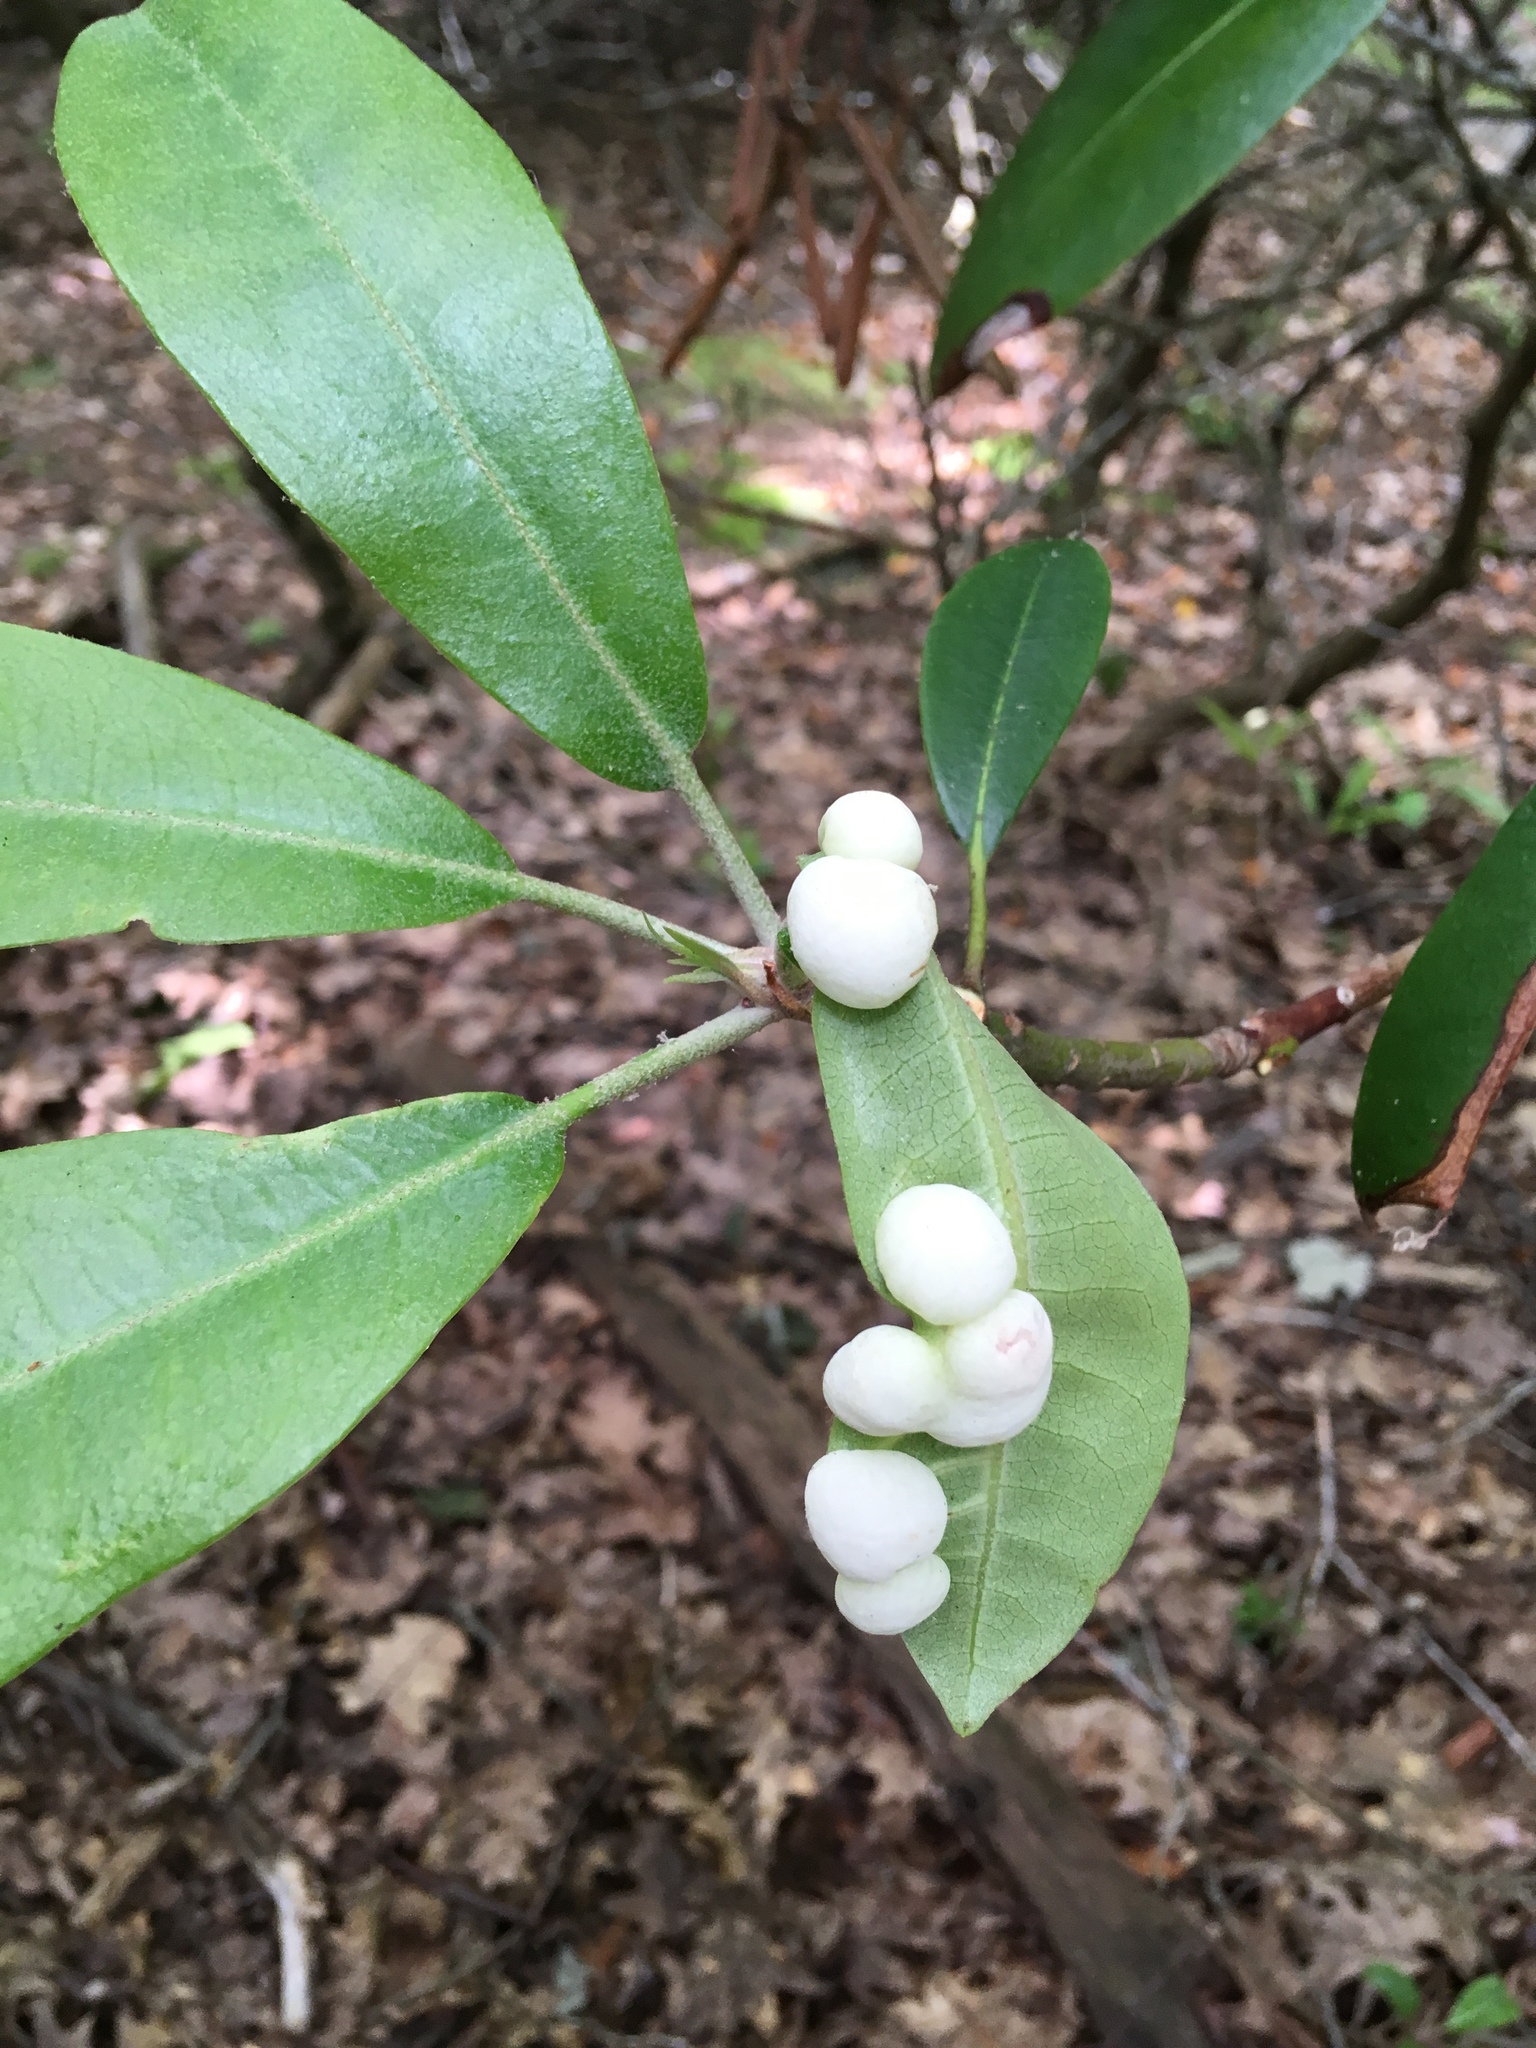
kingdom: Plantae
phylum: Tracheophyta
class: Magnoliopsida
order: Ericales
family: Ericaceae
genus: Rhododendron
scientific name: Rhododendron maximum
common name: Great rhododendron
